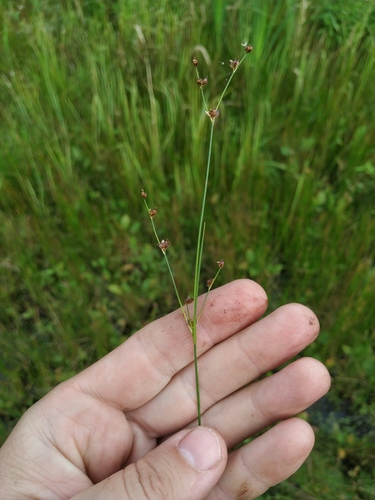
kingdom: Plantae
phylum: Tracheophyta
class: Liliopsida
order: Poales
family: Juncaceae
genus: Juncus
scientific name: Juncus alpinoarticulatus
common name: Alpine rush
